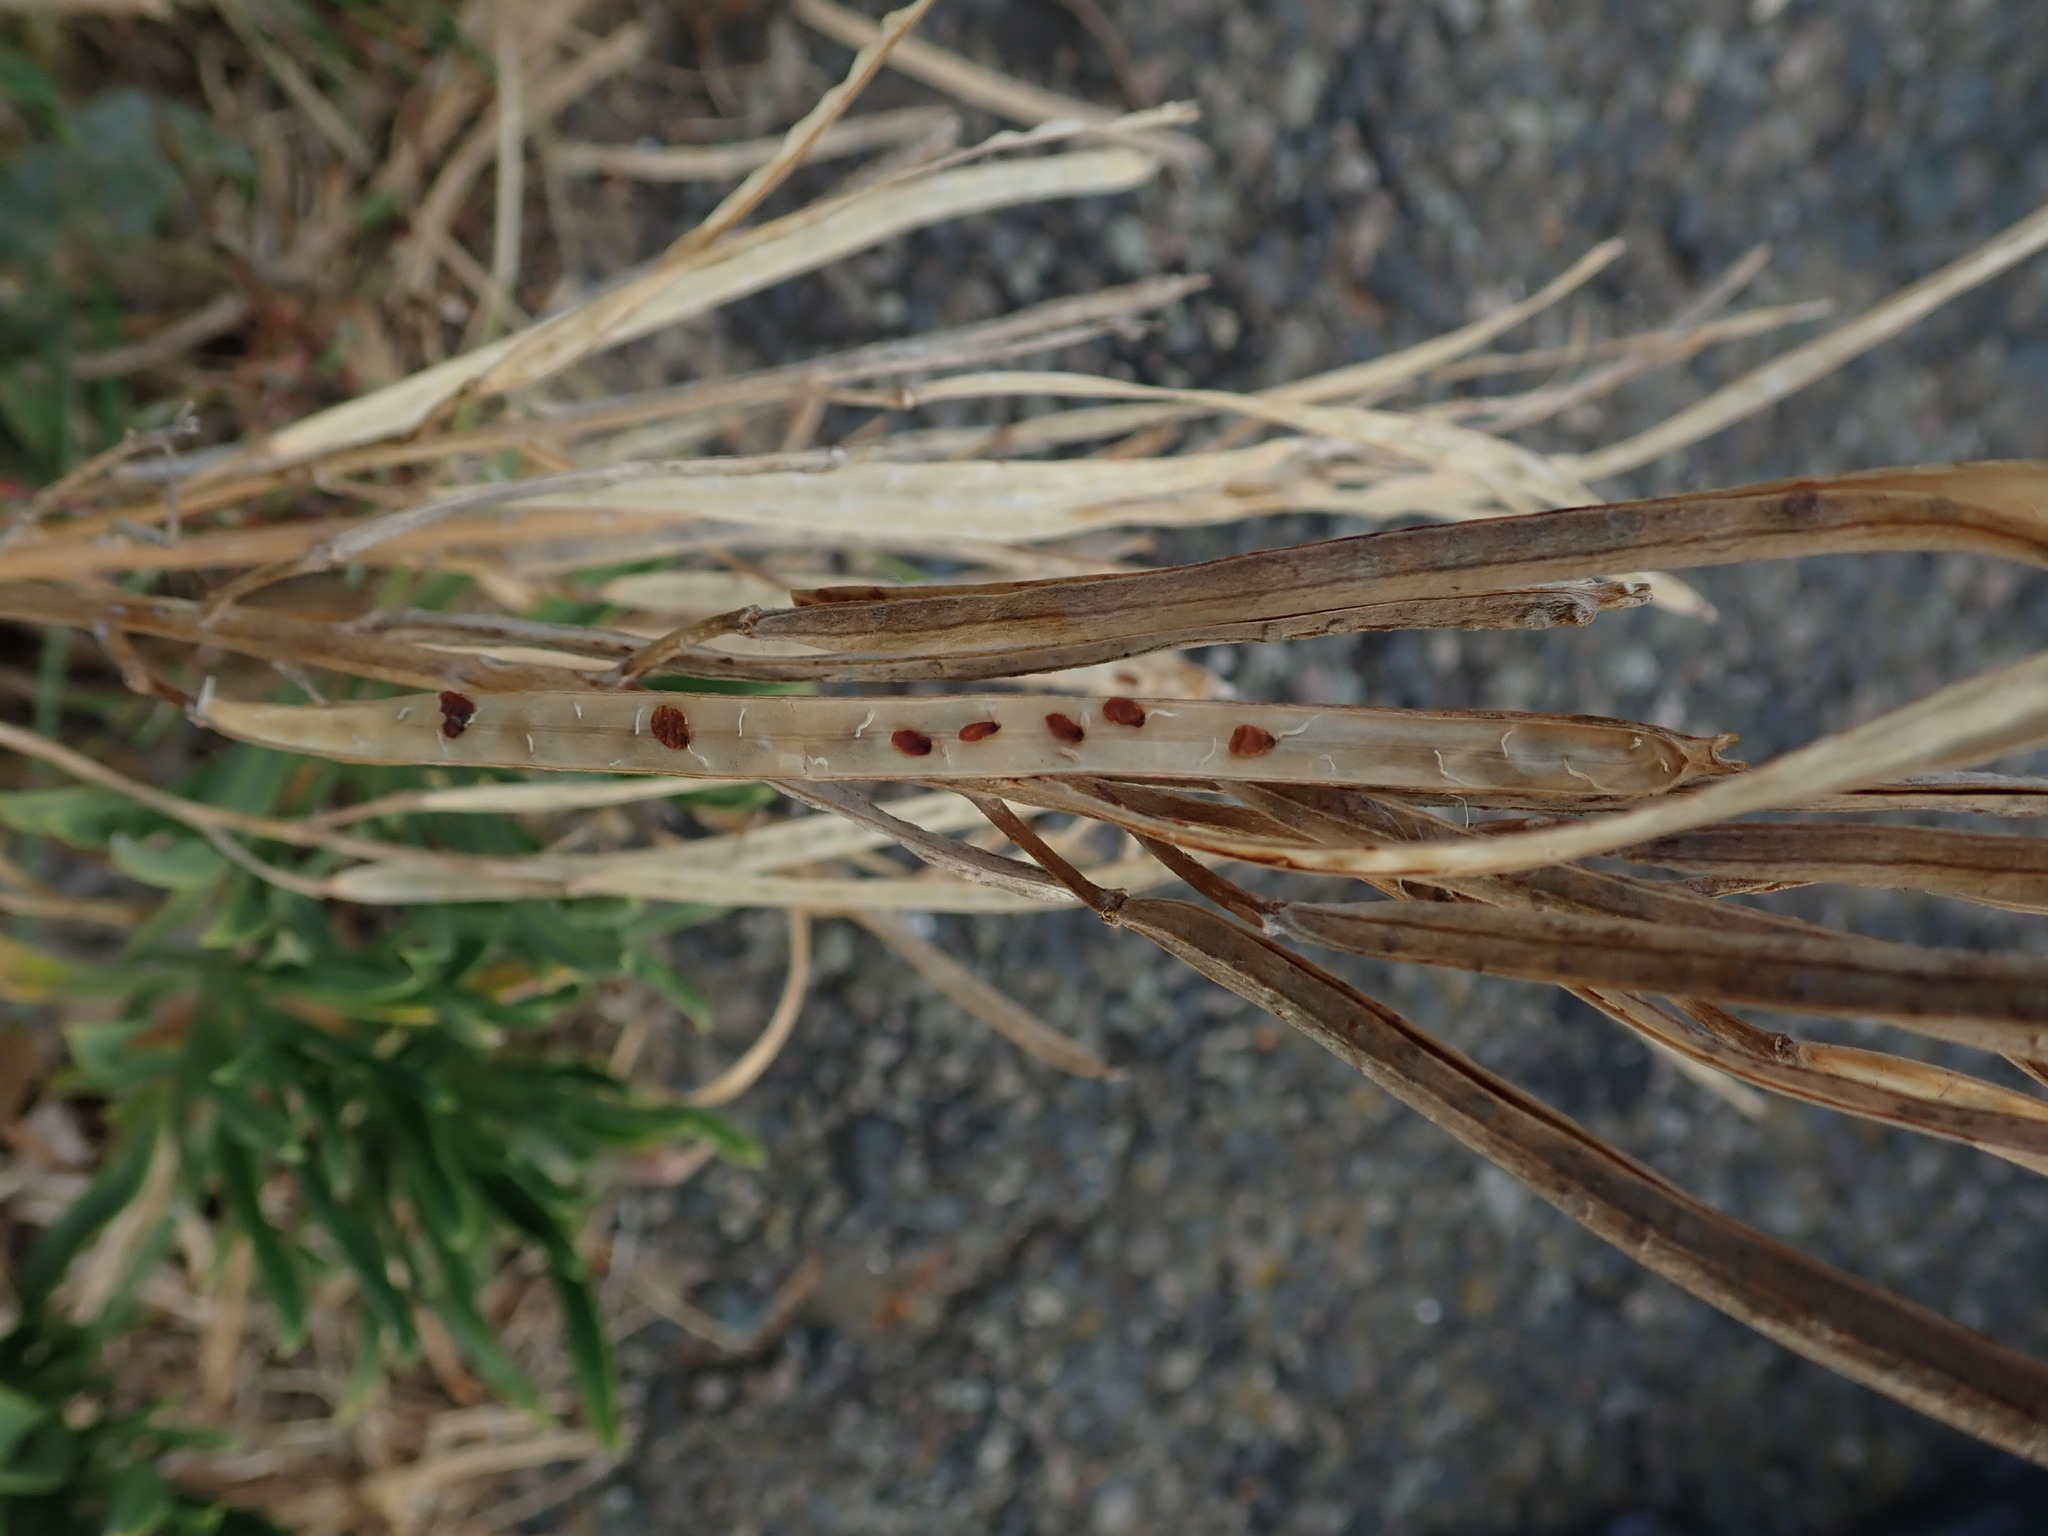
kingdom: Plantae
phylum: Tracheophyta
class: Magnoliopsida
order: Brassicales
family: Brassicaceae
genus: Erysimum
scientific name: Erysimum cheiri
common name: Wallflower
